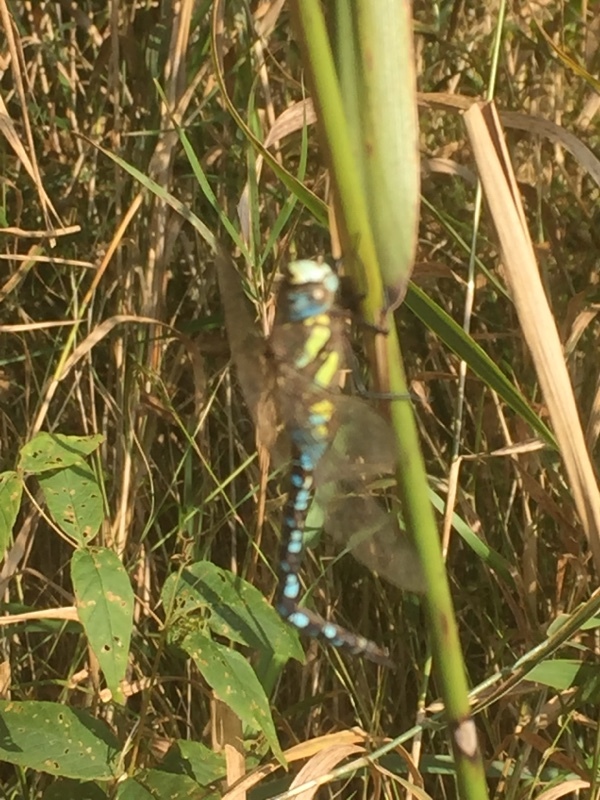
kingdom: Animalia
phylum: Arthropoda
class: Insecta
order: Odonata
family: Aeshnidae
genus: Aeshna
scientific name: Aeshna mixta
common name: Migrant hawker
